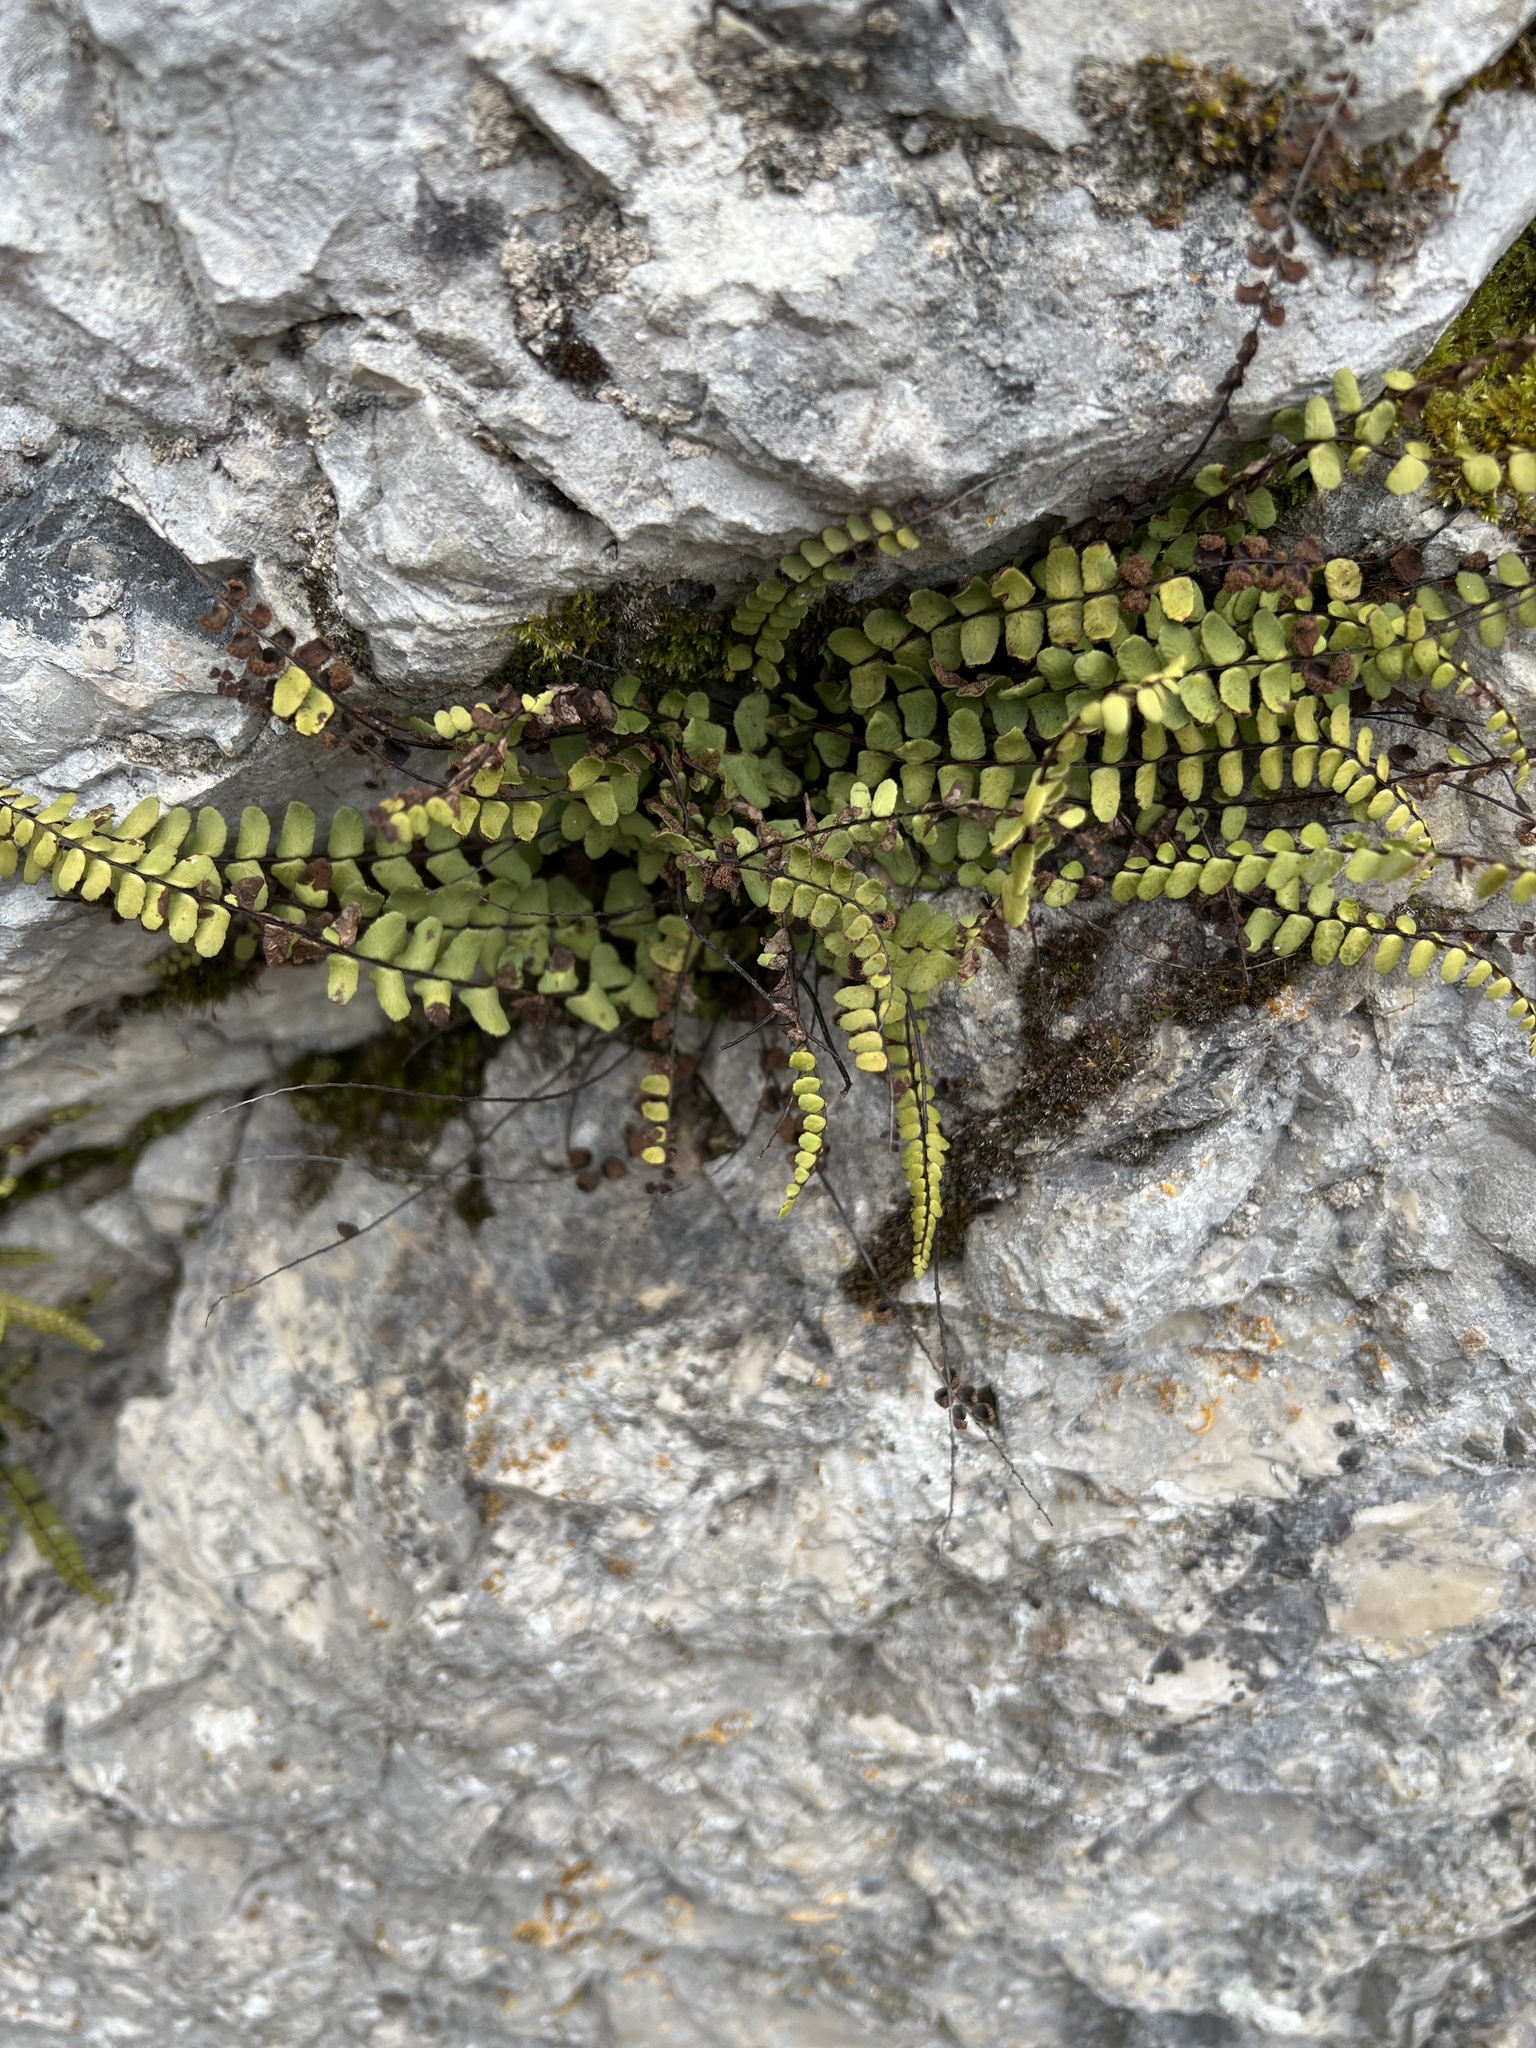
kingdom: Plantae
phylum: Tracheophyta
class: Polypodiopsida
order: Polypodiales
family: Aspleniaceae
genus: Asplenium
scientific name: Asplenium trichomanes
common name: Maidenhair spleenwort
